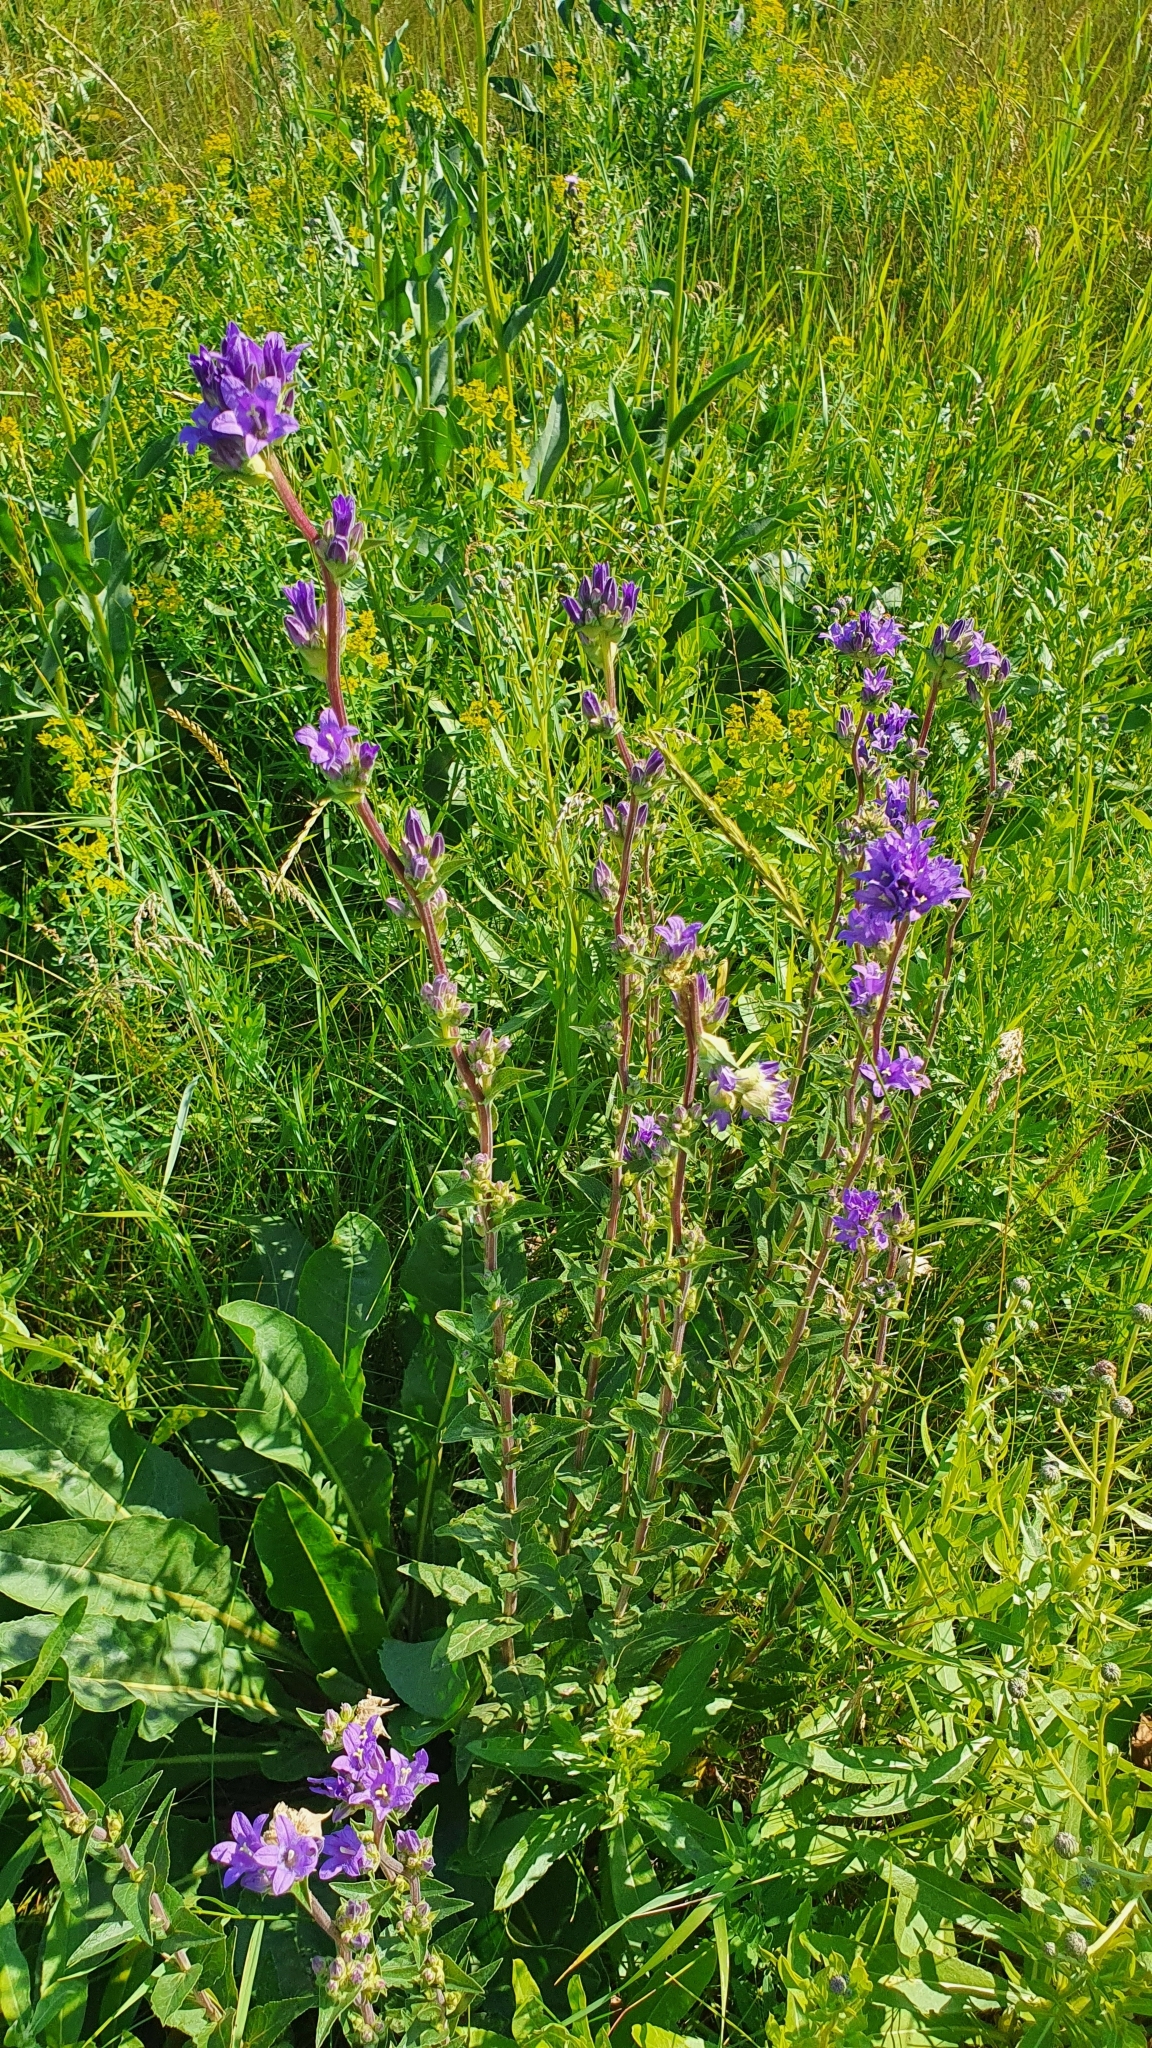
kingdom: Plantae
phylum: Tracheophyta
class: Magnoliopsida
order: Asterales
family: Campanulaceae
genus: Campanula
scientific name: Campanula glomerata
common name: Clustered bellflower
